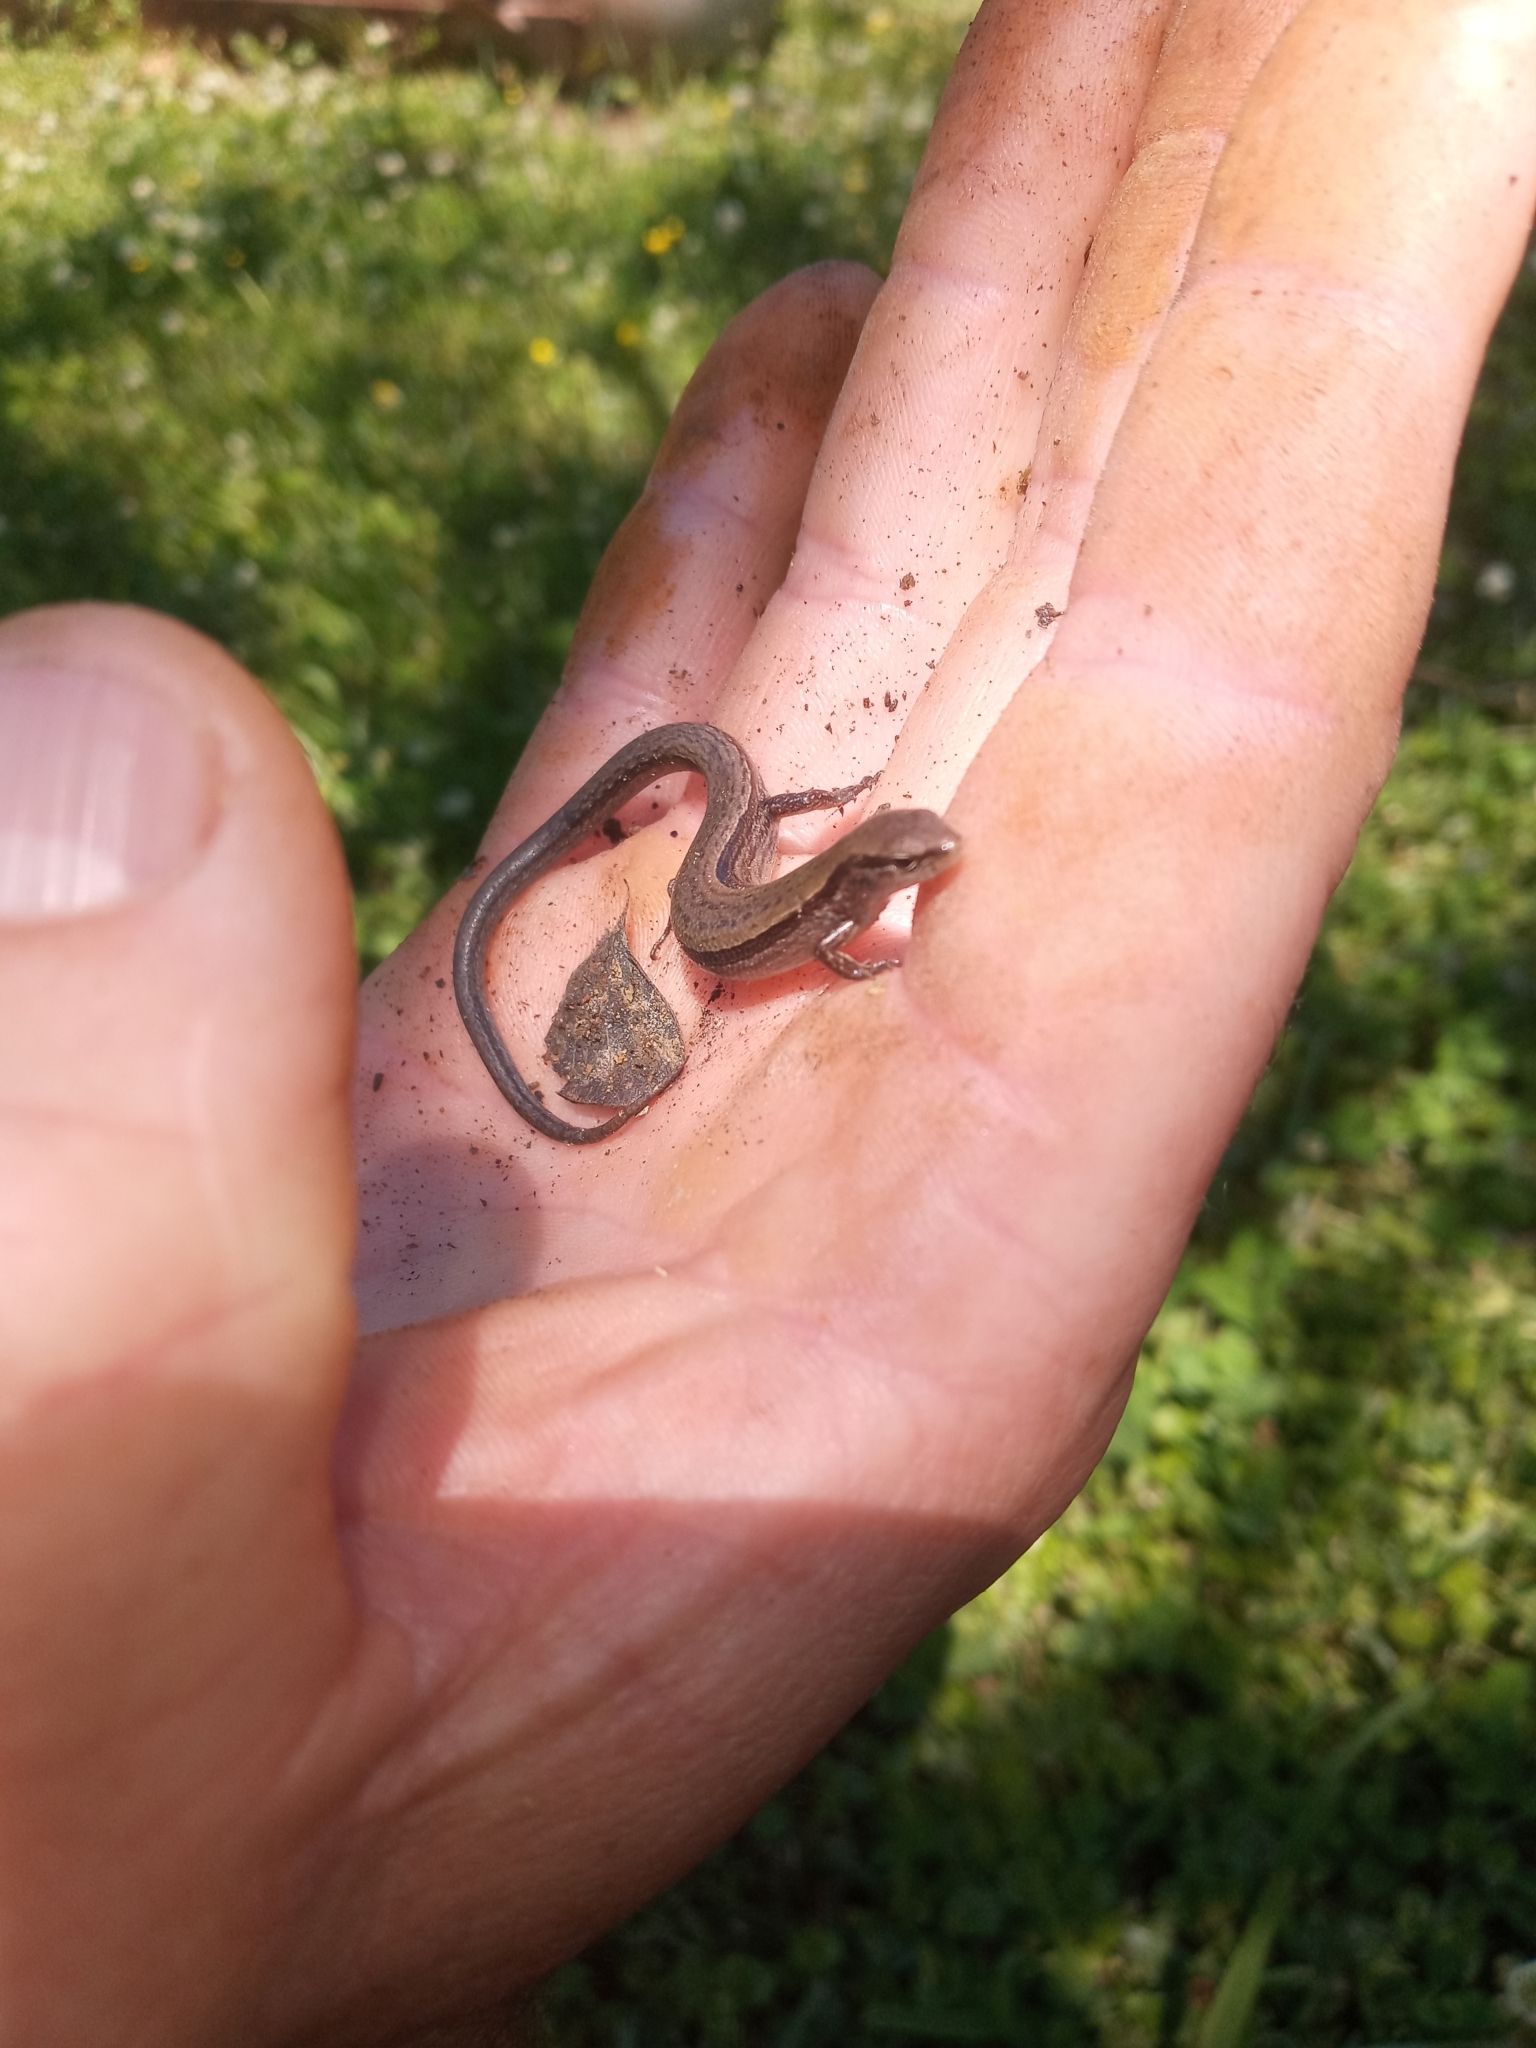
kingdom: Animalia
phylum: Chordata
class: Squamata
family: Scincidae
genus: Scincella
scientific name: Scincella lateralis
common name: Ground skink
